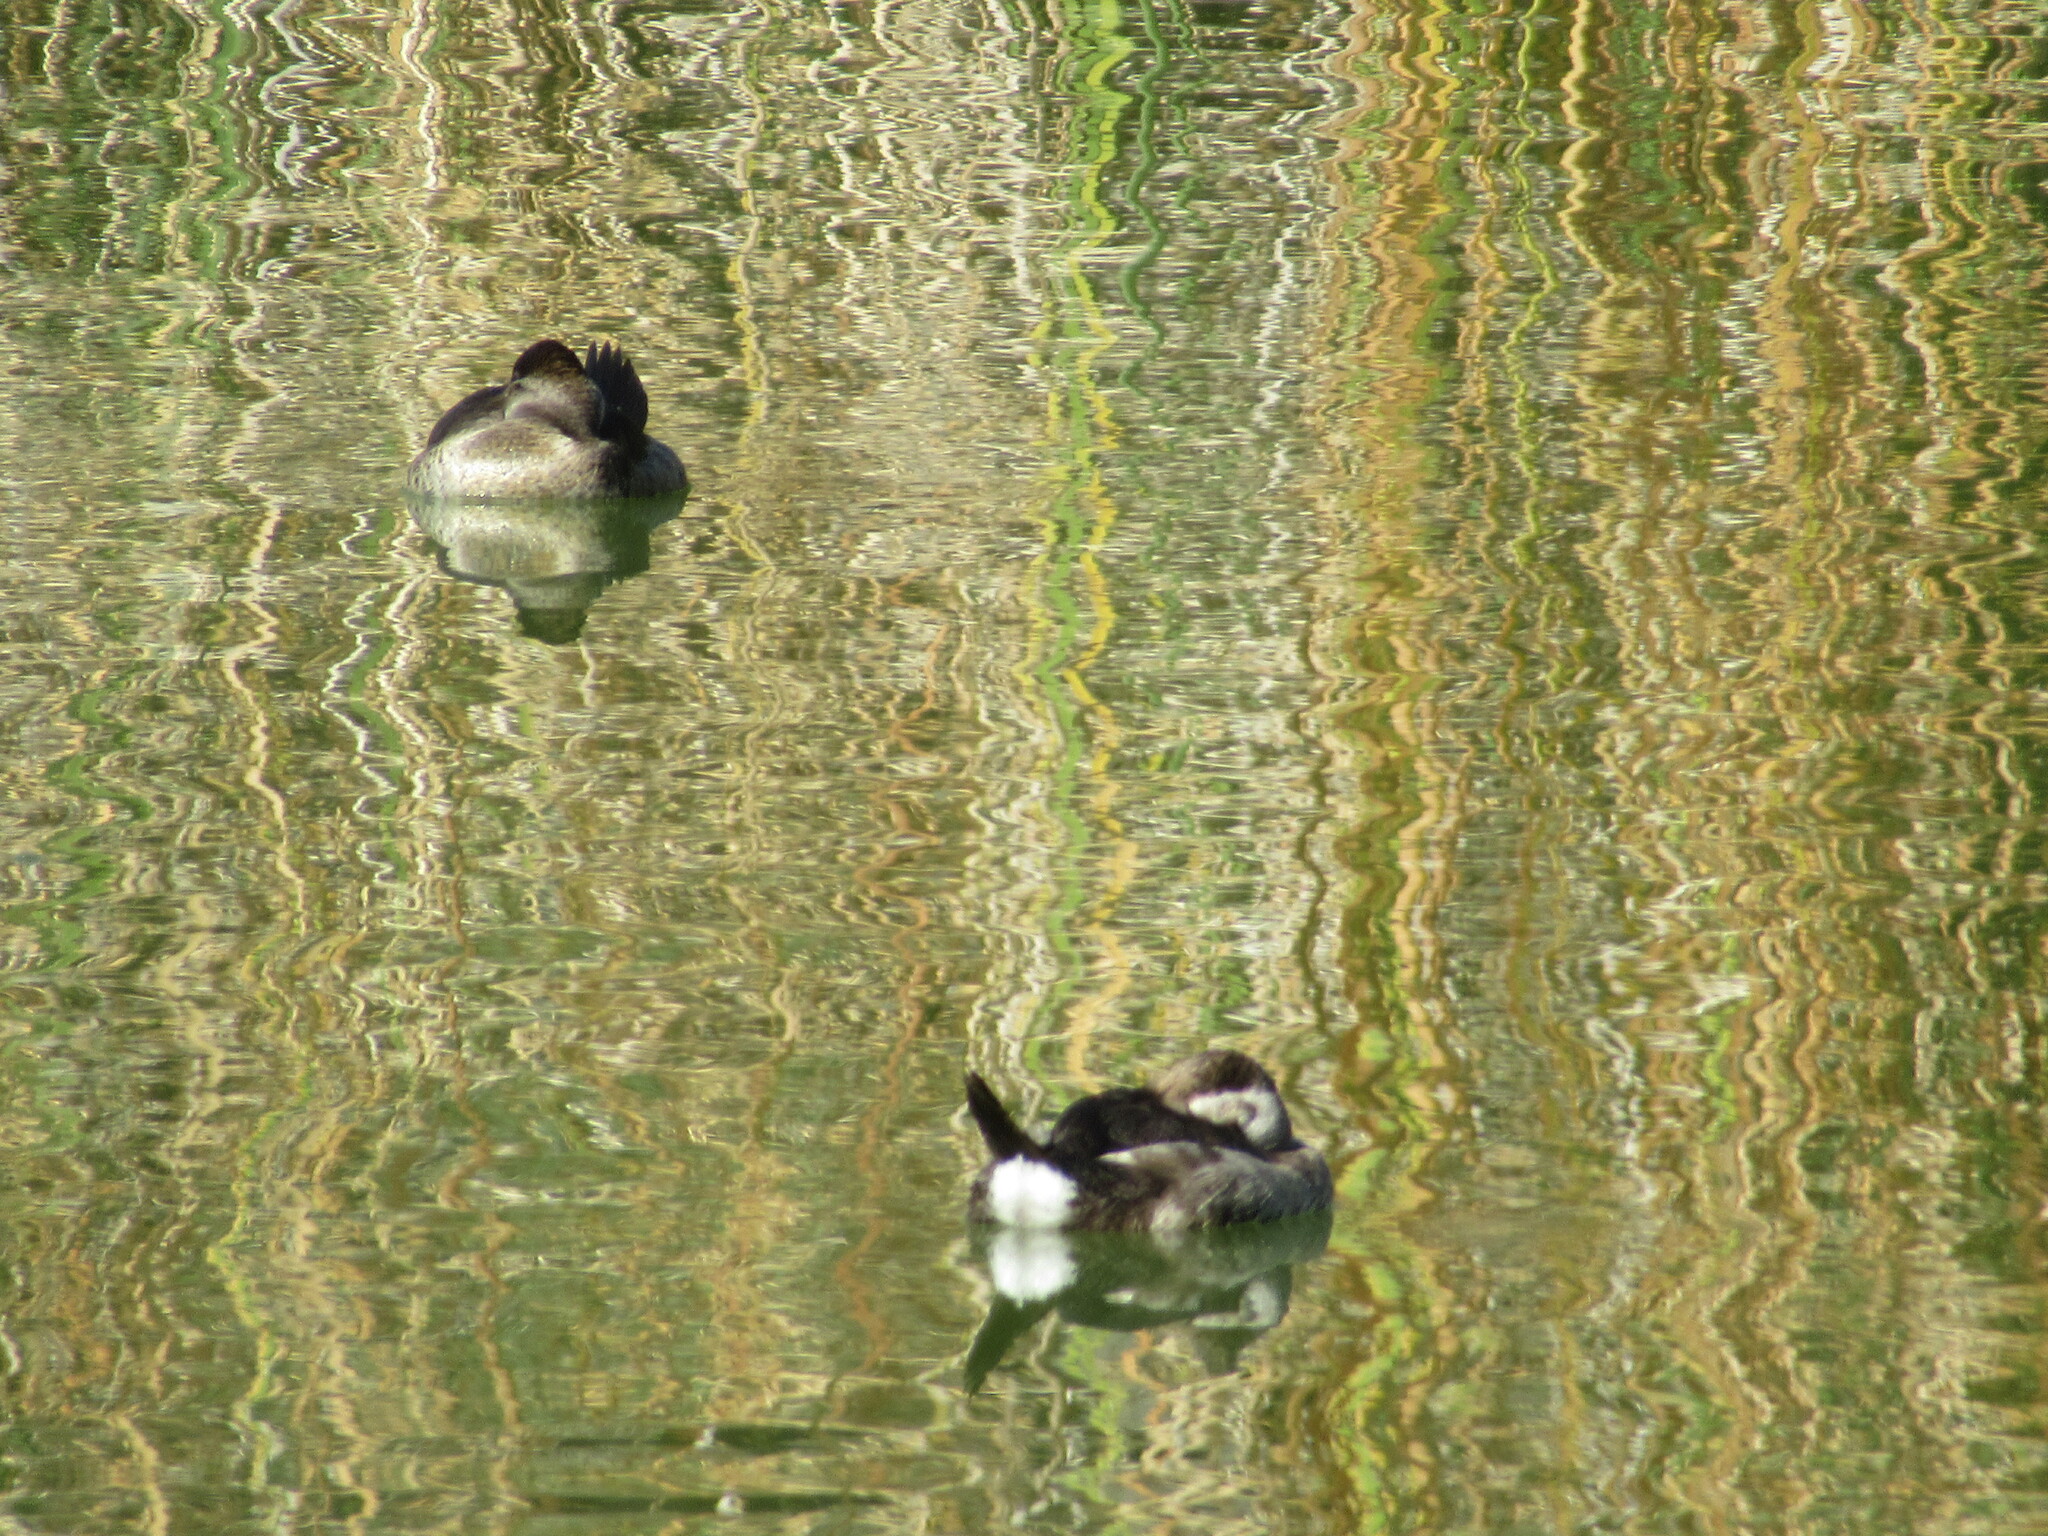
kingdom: Animalia
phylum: Chordata
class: Aves
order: Anseriformes
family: Anatidae
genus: Oxyura
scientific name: Oxyura jamaicensis
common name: Ruddy duck
